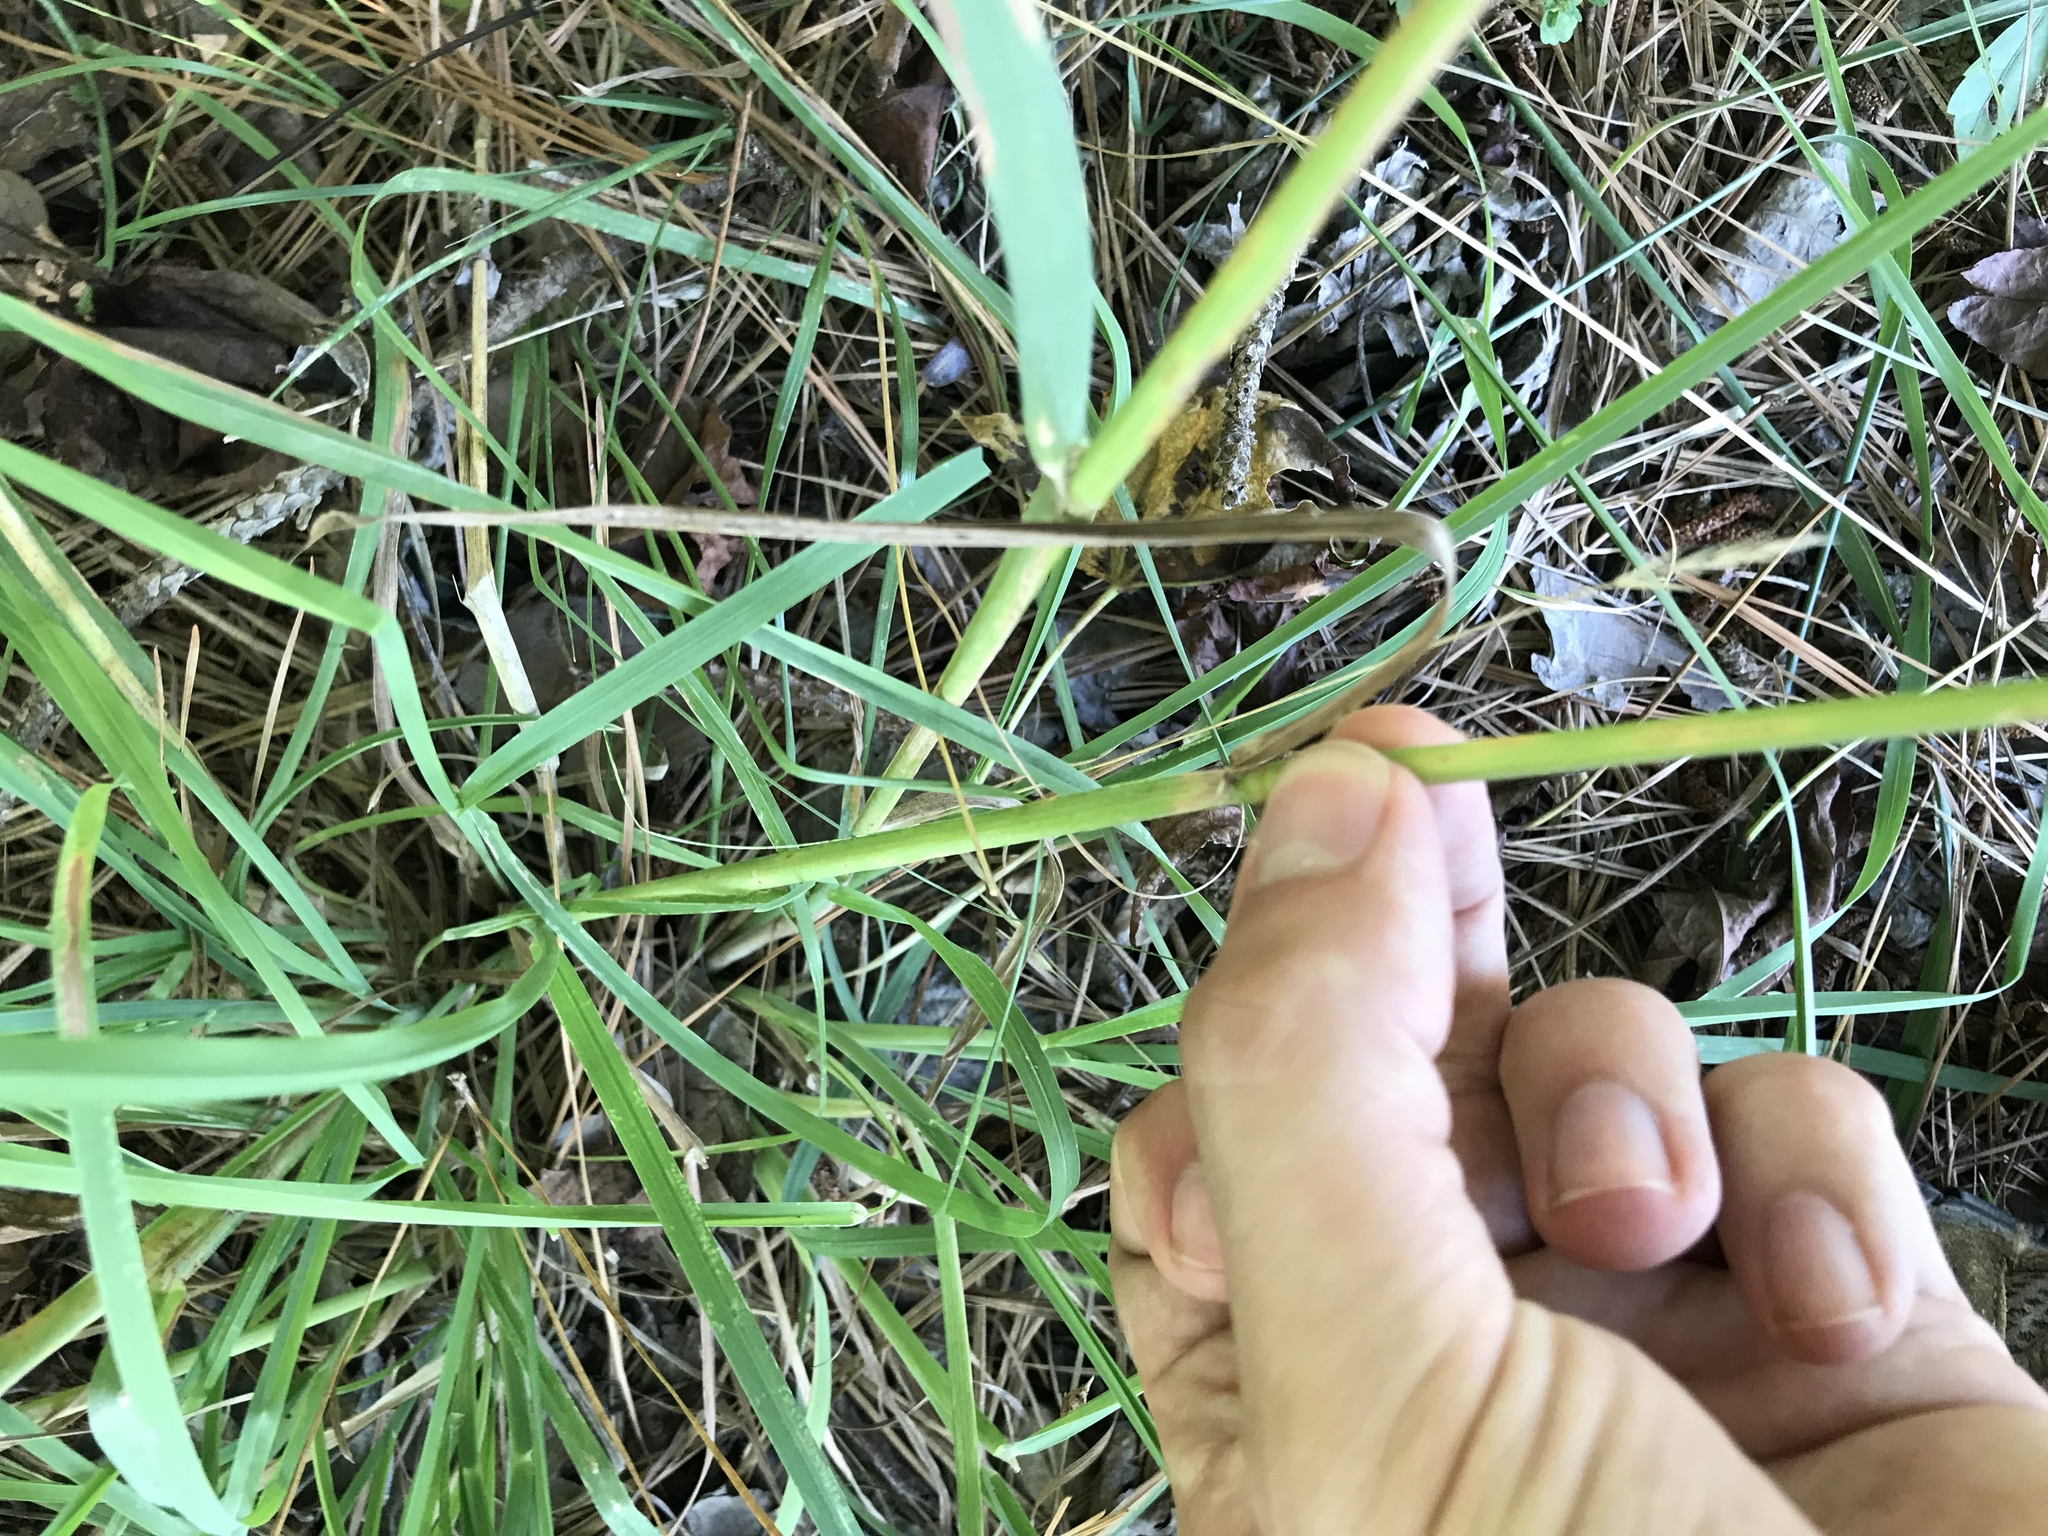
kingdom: Plantae
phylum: Tracheophyta
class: Liliopsida
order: Poales
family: Poaceae
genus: Dactylis
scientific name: Dactylis glomerata
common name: Orchardgrass
